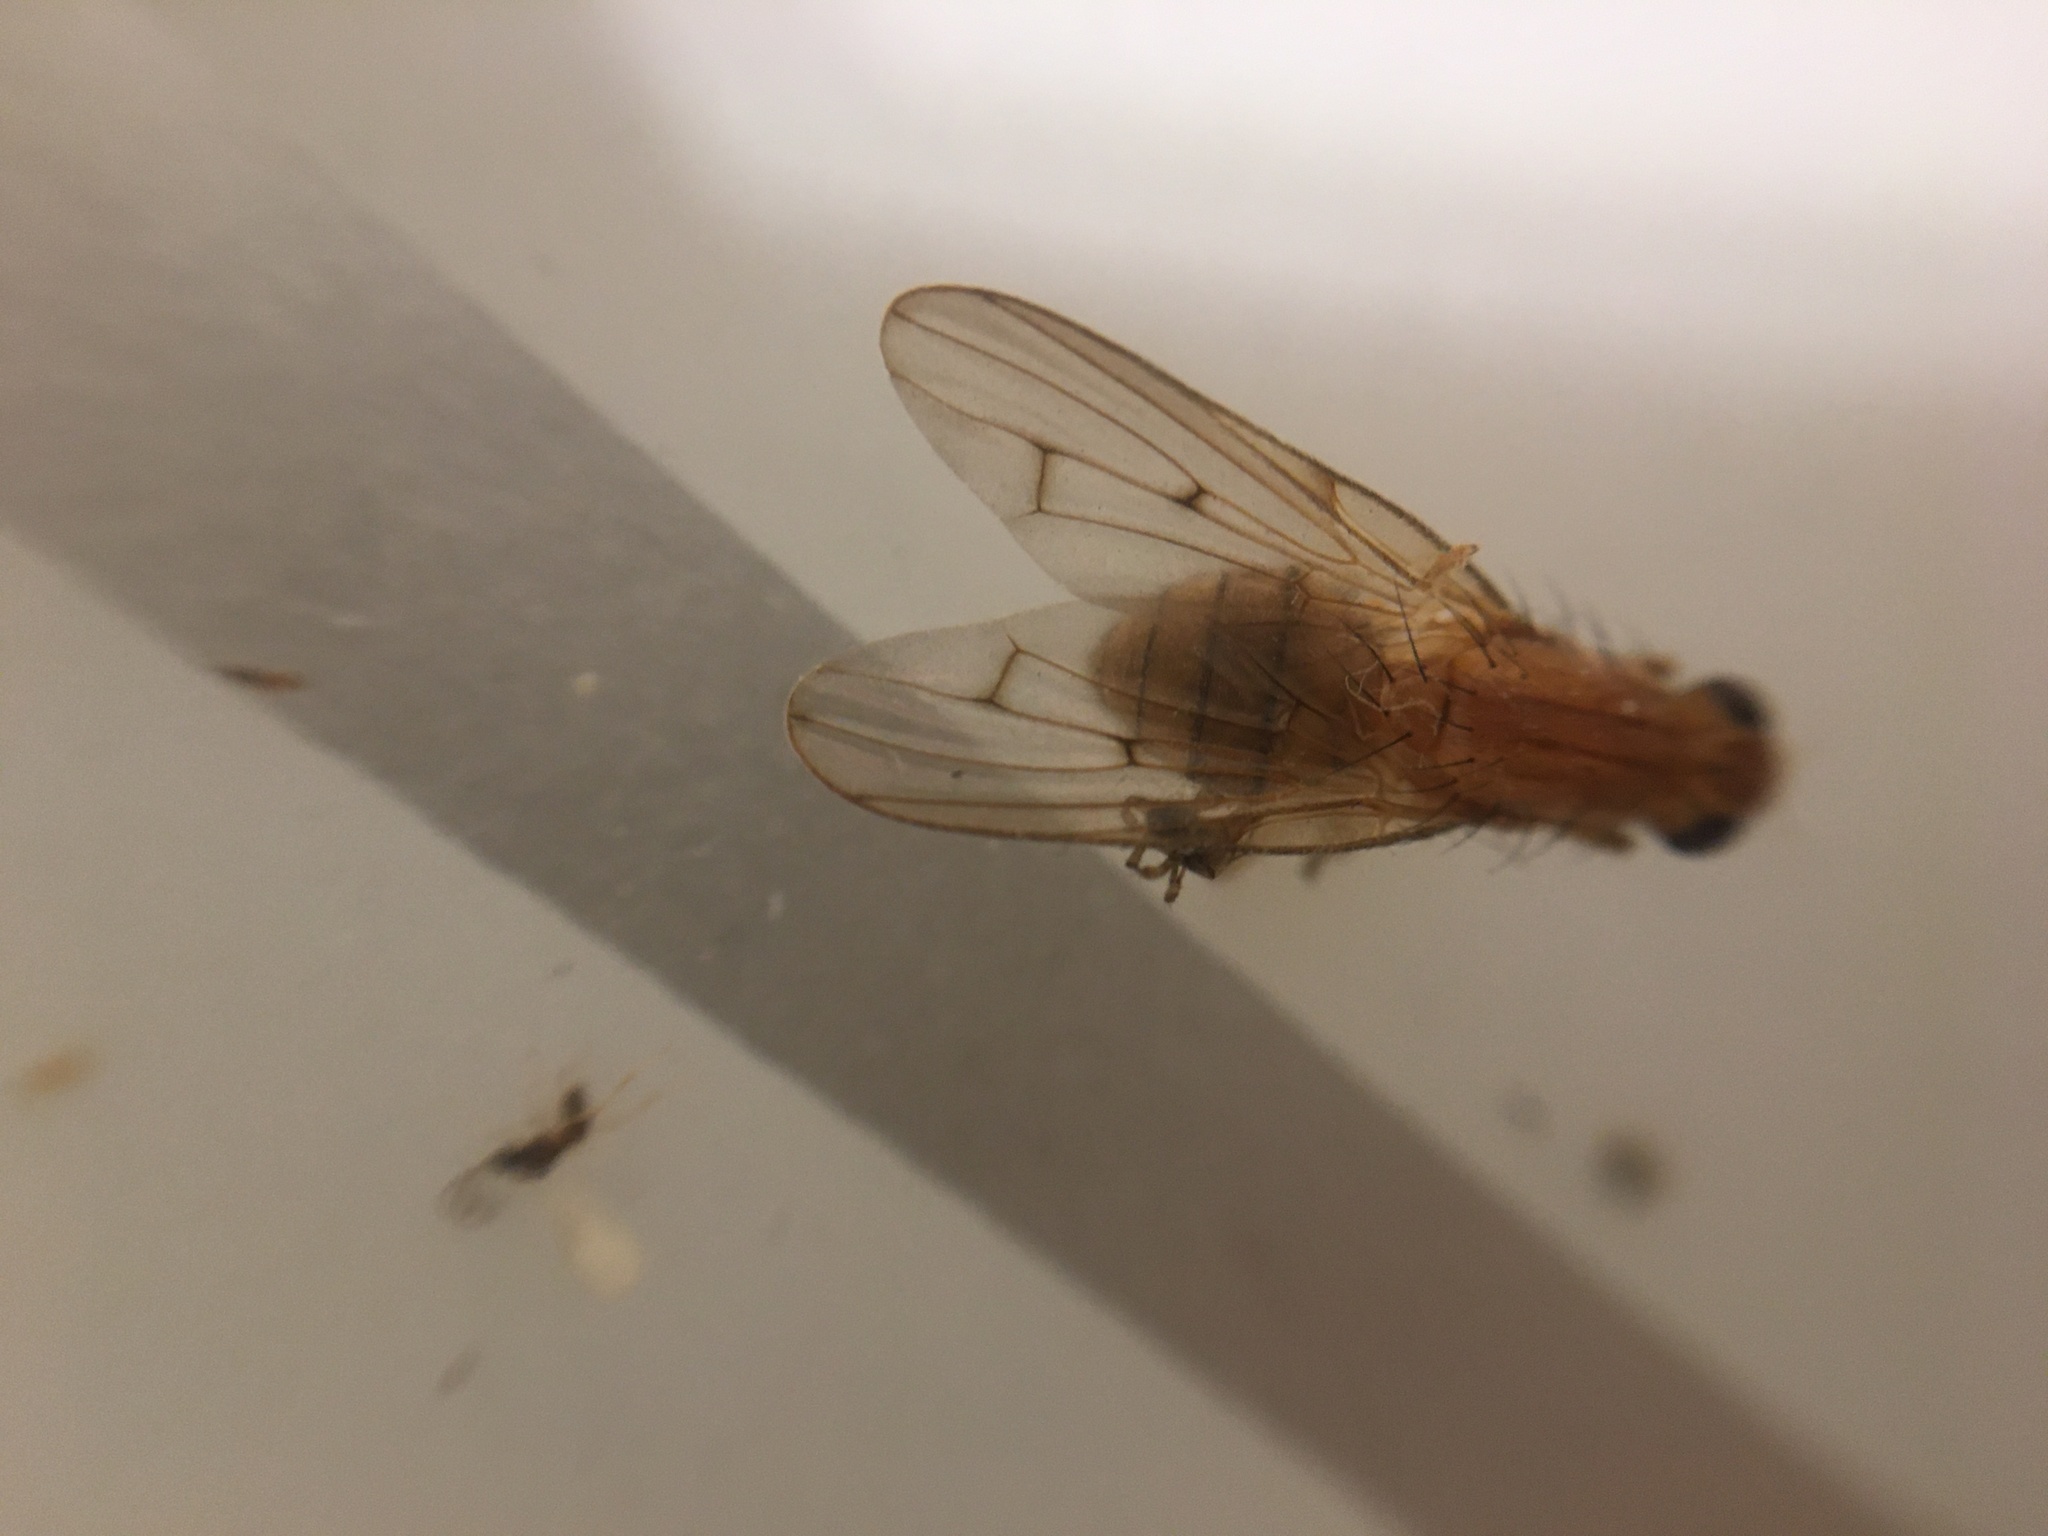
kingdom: Animalia
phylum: Arthropoda
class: Insecta
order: Diptera
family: Dryomyzidae
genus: Dryomyza
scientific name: Dryomyza anilis
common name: Marsh fly
